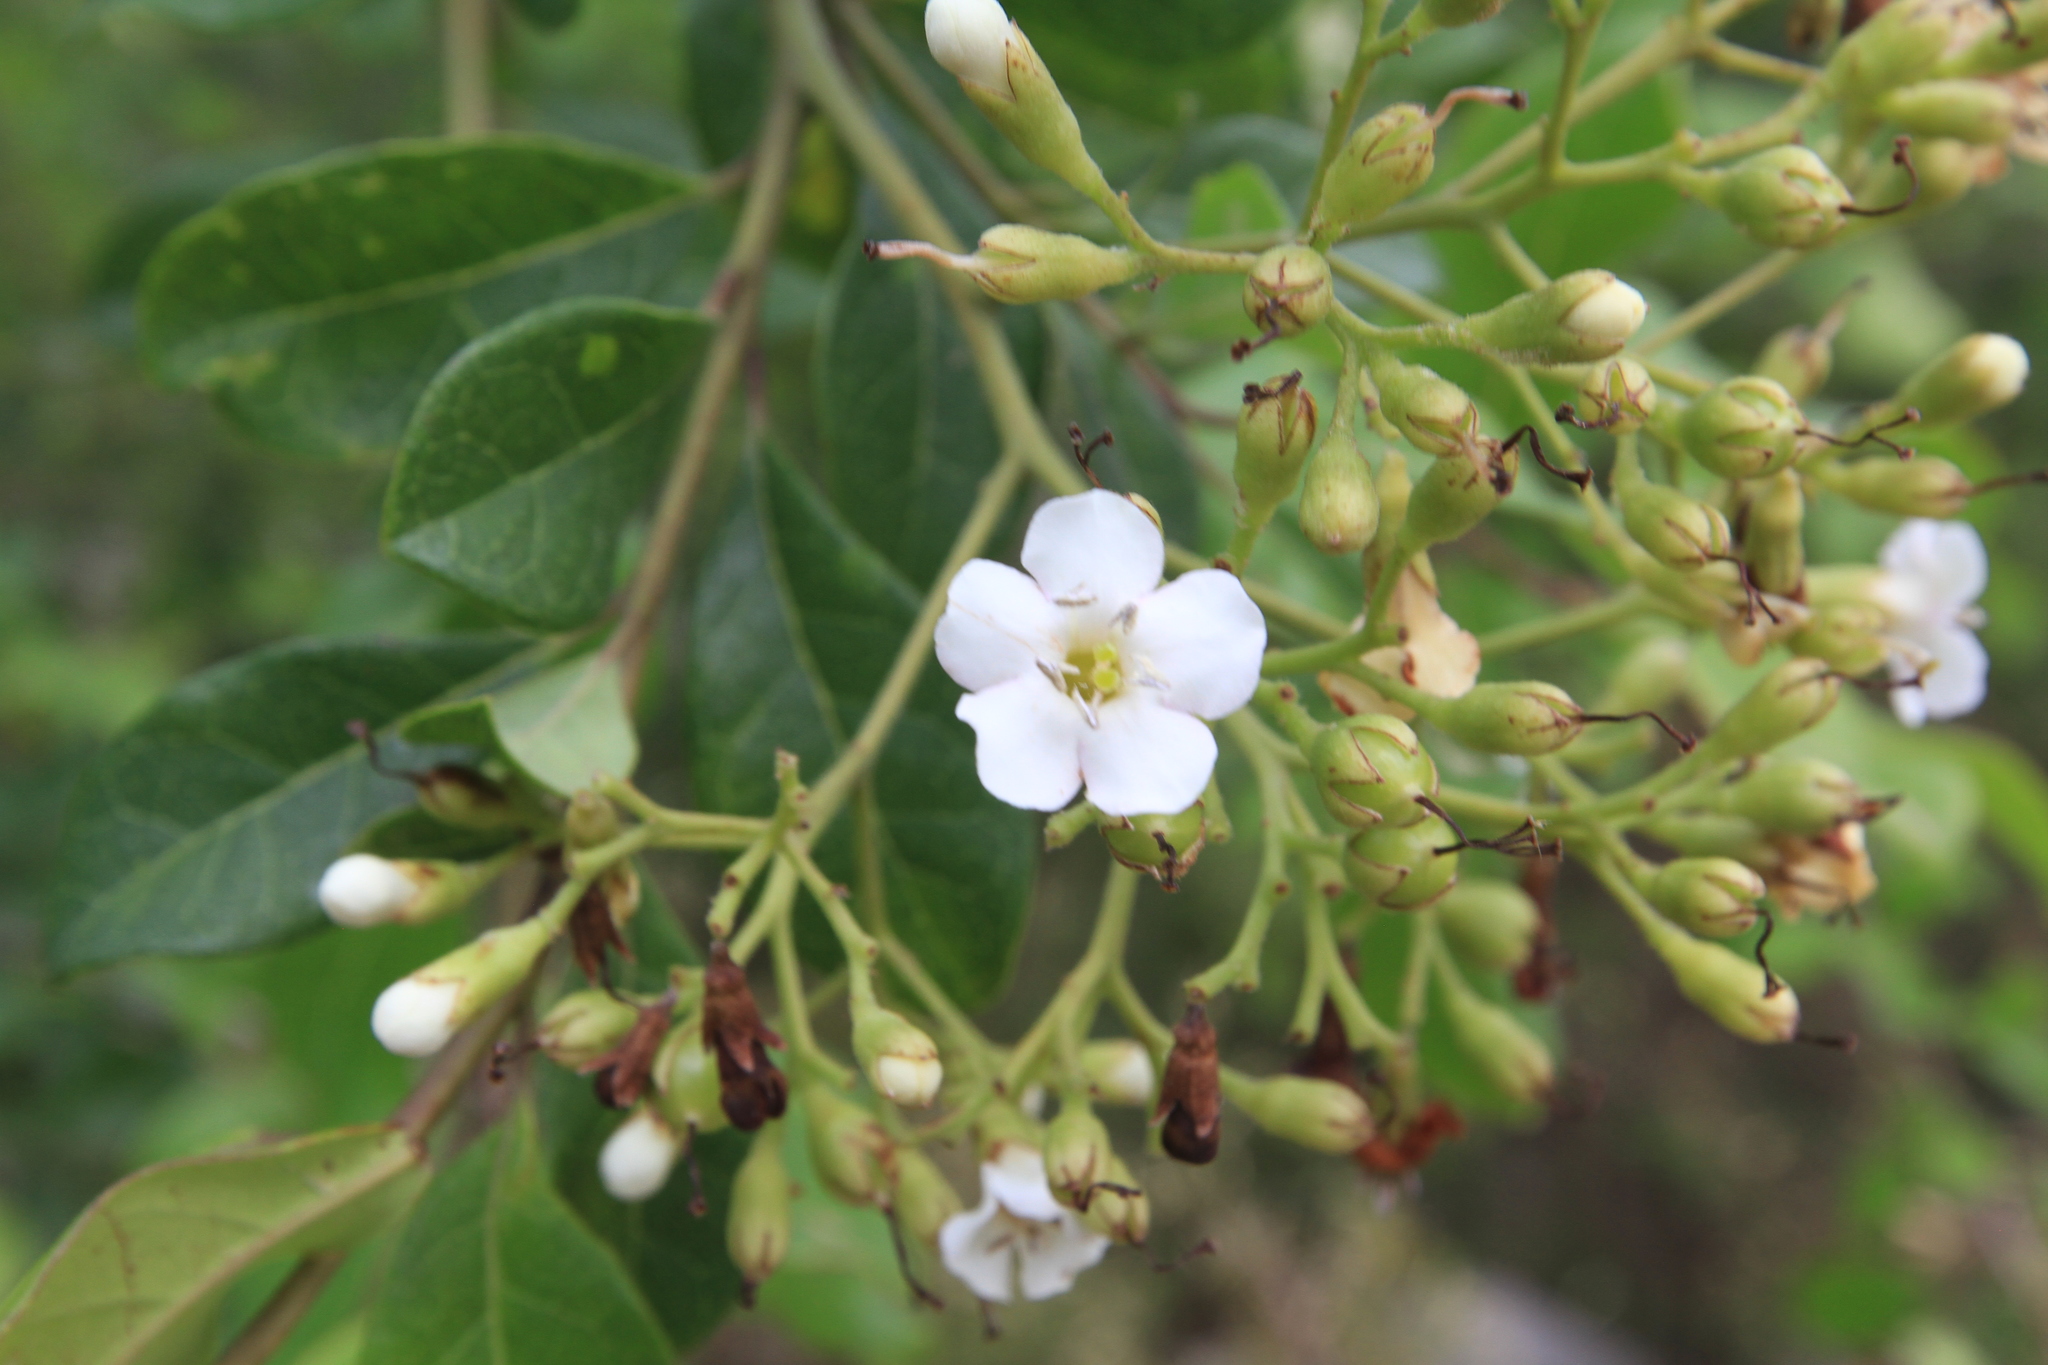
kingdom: Plantae
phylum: Tracheophyta
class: Magnoliopsida
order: Boraginales
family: Ehretiaceae
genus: Bourreria
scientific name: Bourreria succulenta
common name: Cherry
